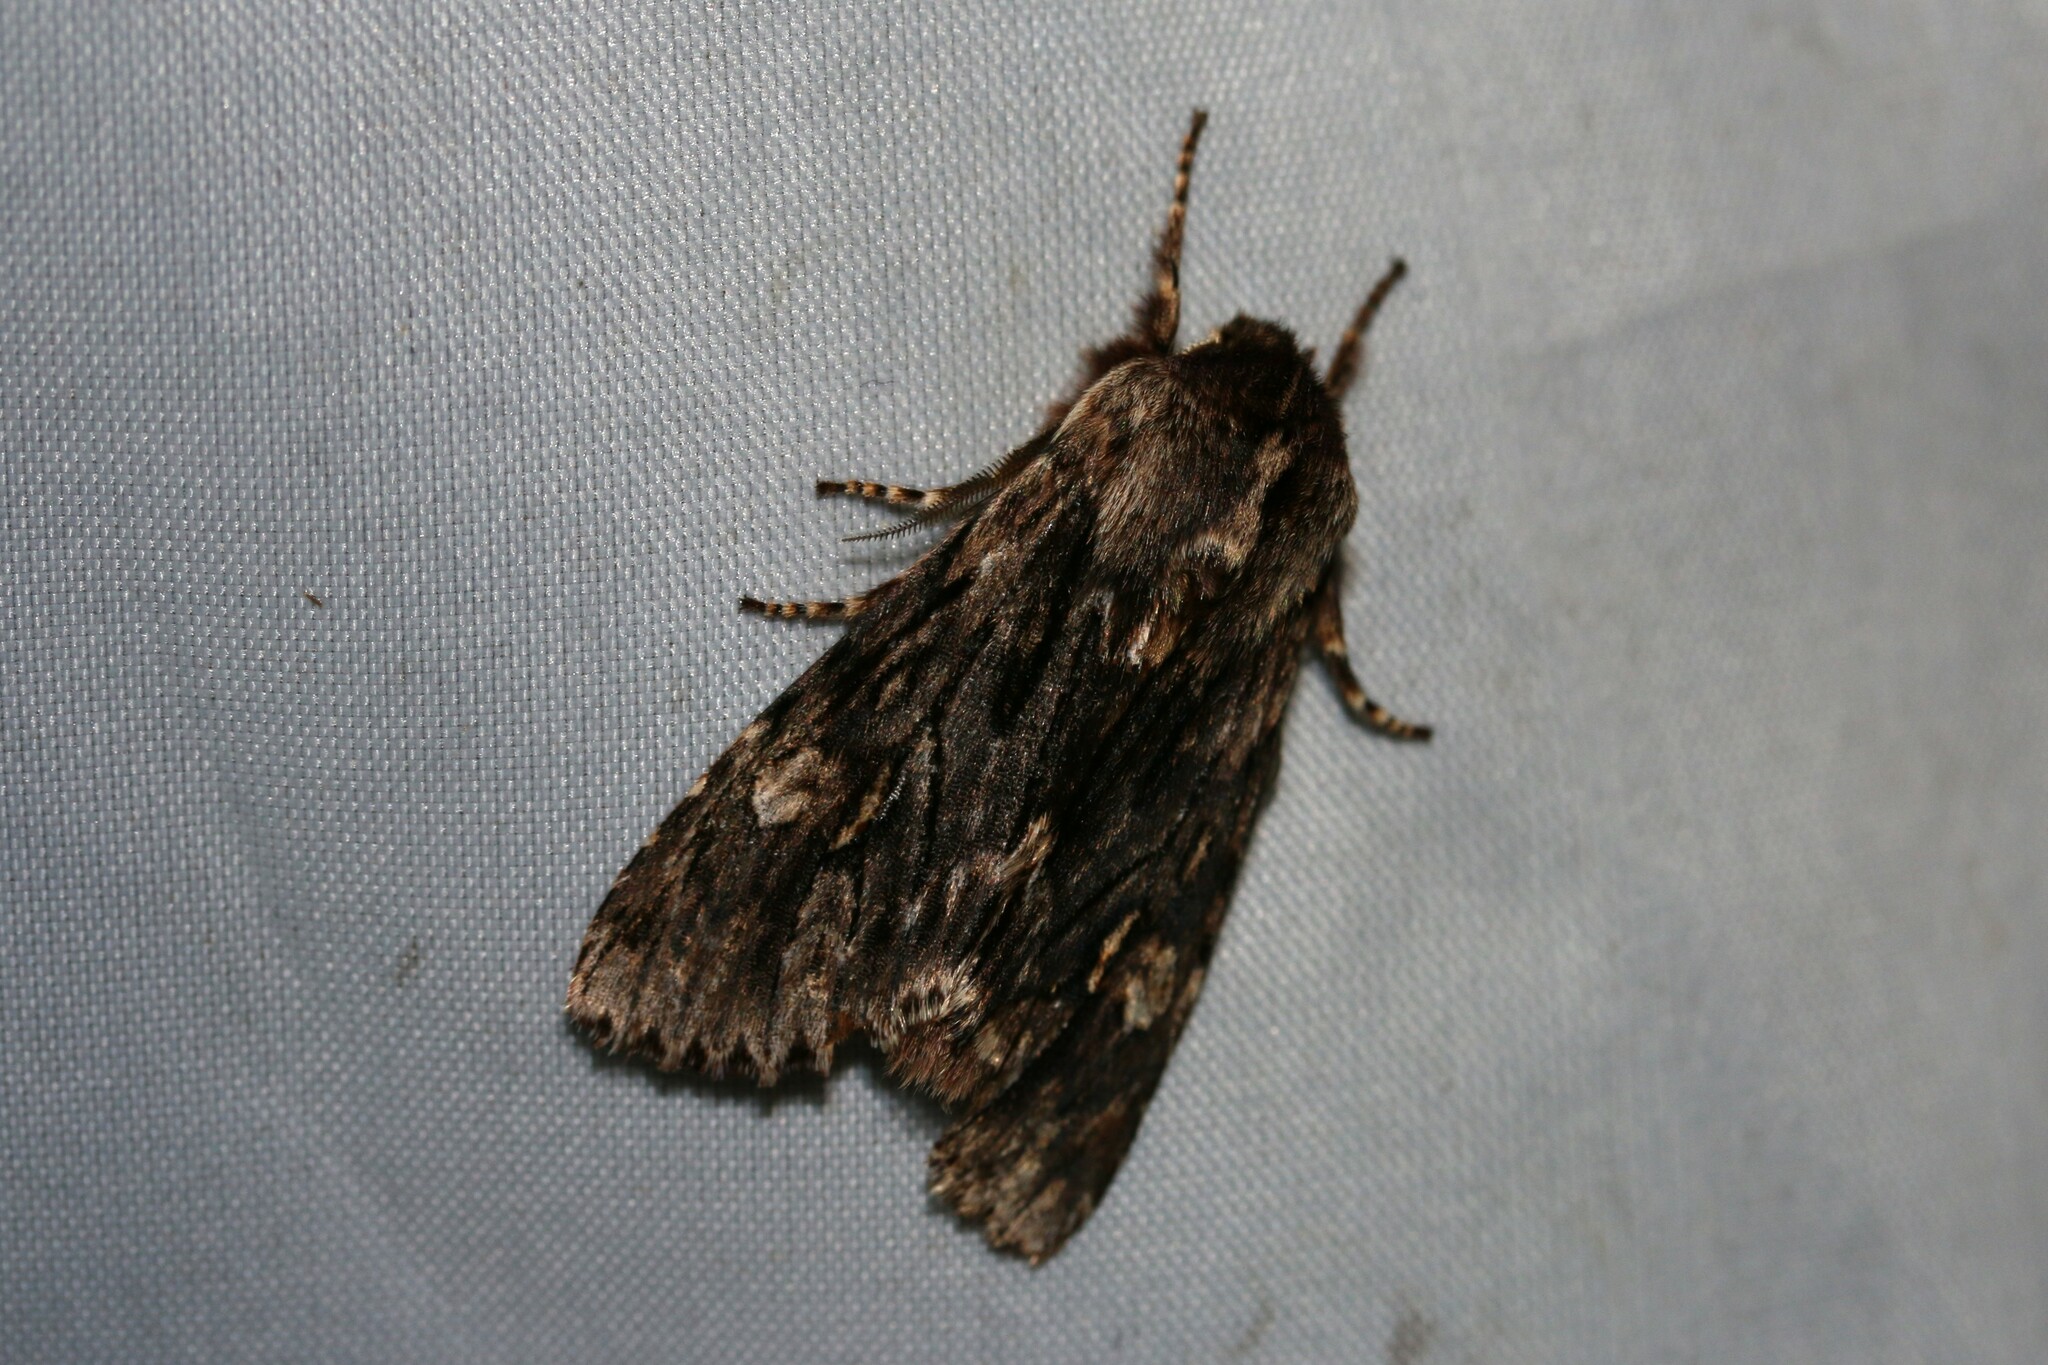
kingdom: Animalia
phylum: Arthropoda
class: Insecta
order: Lepidoptera
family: Noctuidae
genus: Brachionycha
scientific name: Brachionycha nubeculosa
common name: Rannoch sprawler
